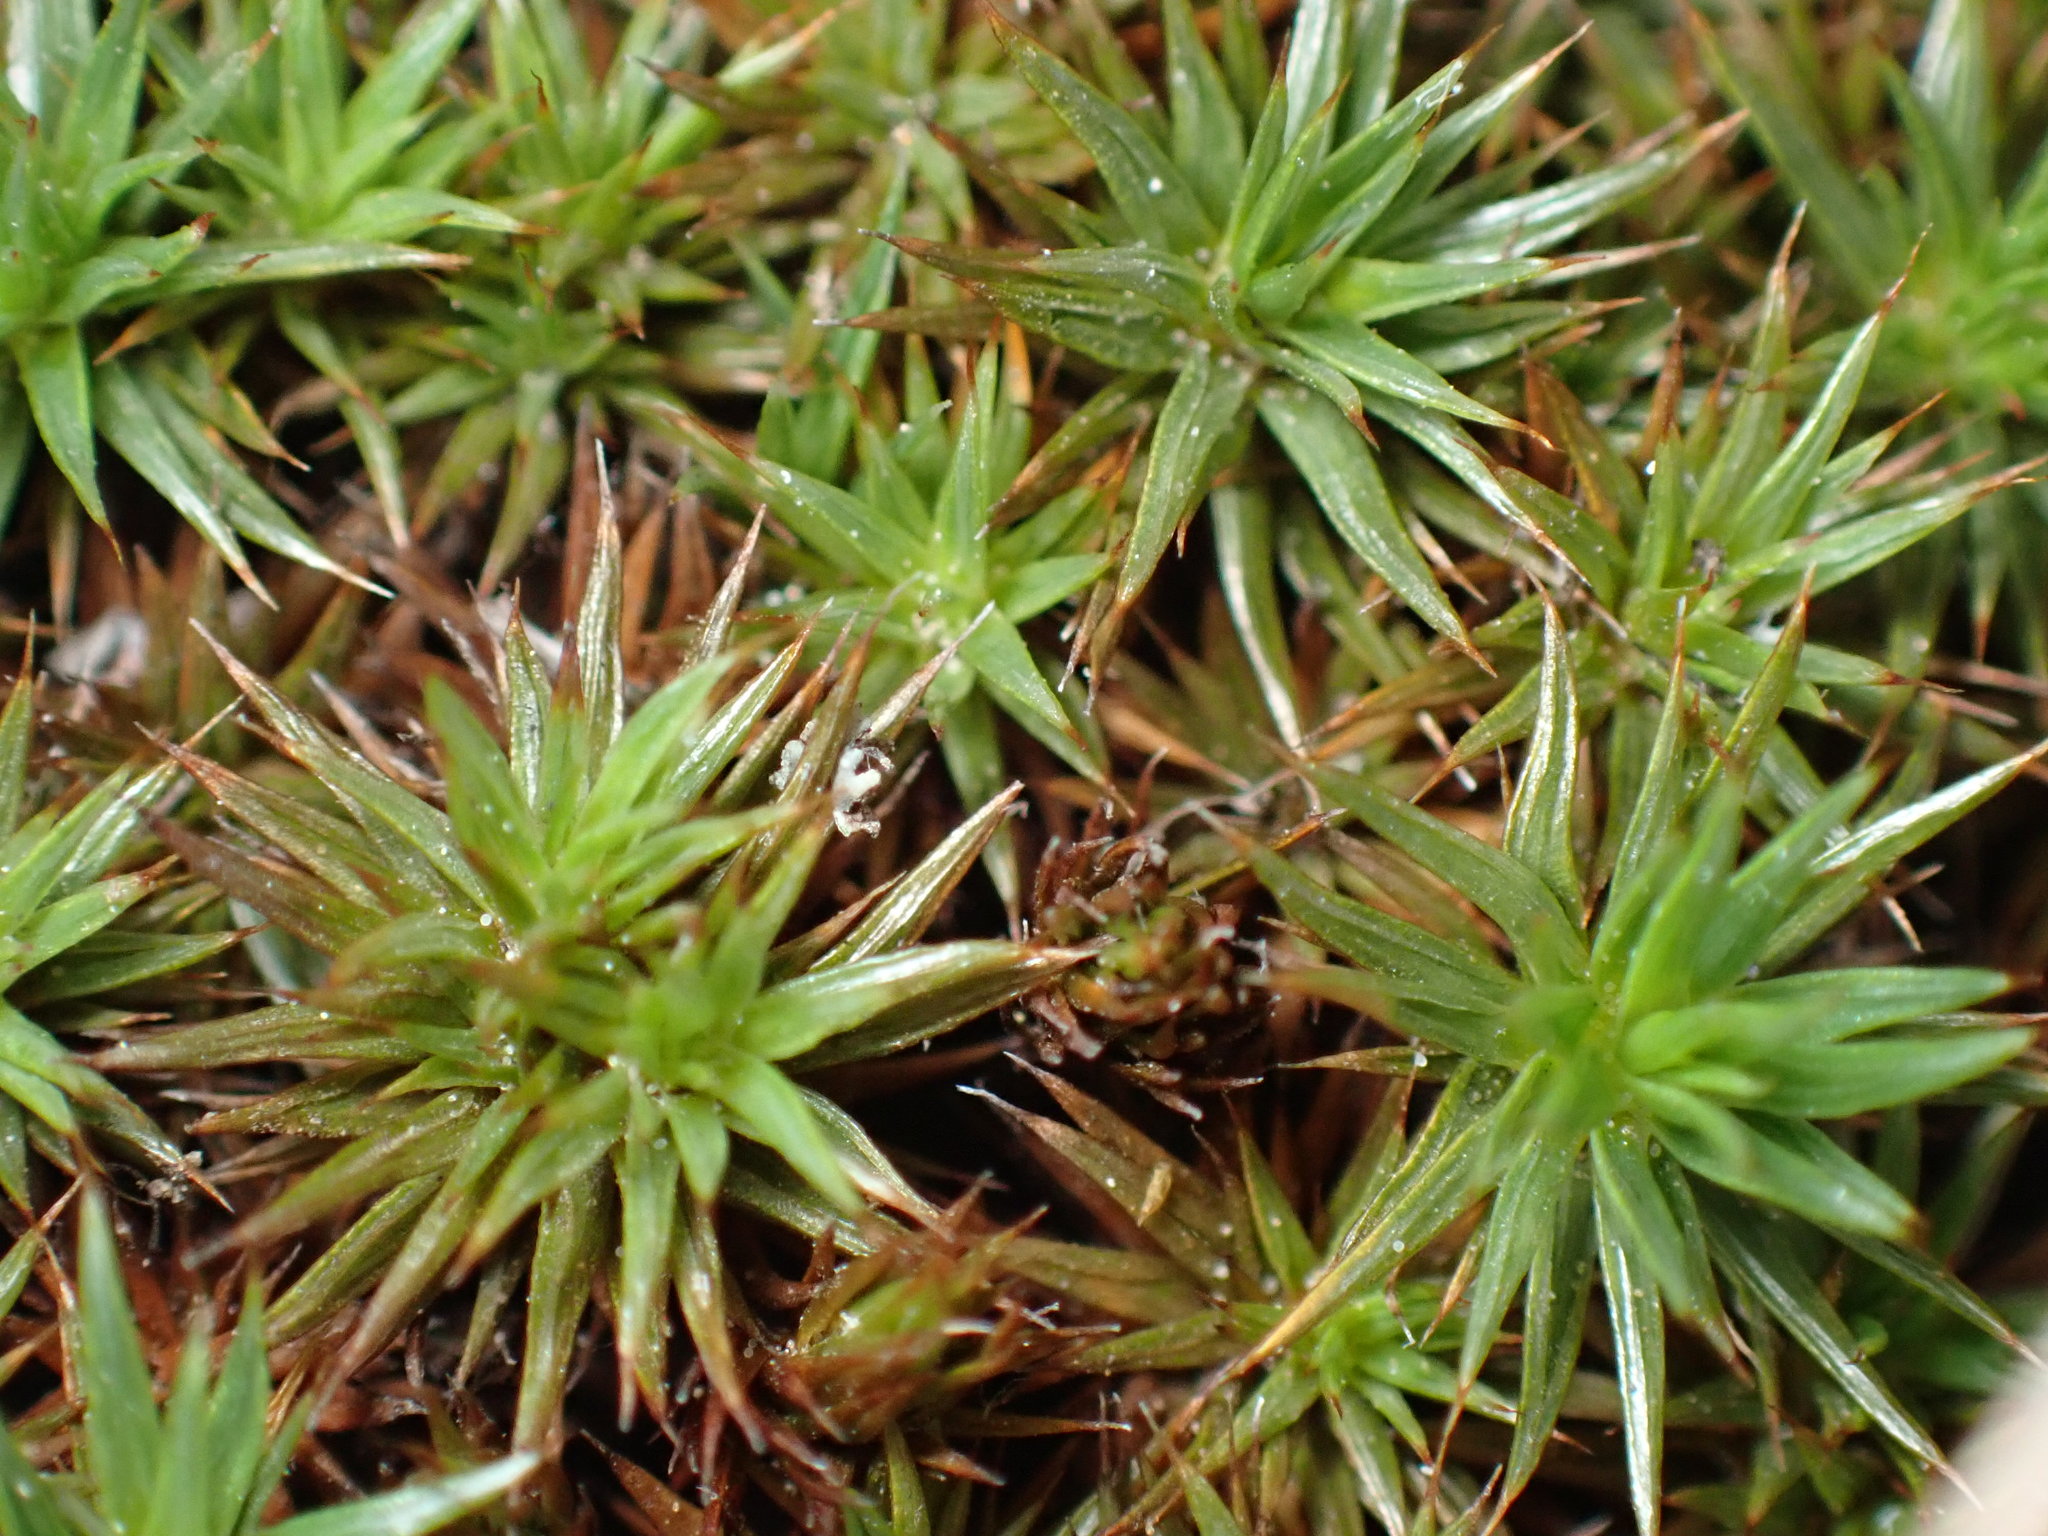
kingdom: Plantae
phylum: Bryophyta
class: Polytrichopsida
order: Polytrichales
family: Polytrichaceae
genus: Polytrichum
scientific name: Polytrichum juniperinum
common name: Juniper haircap moss
